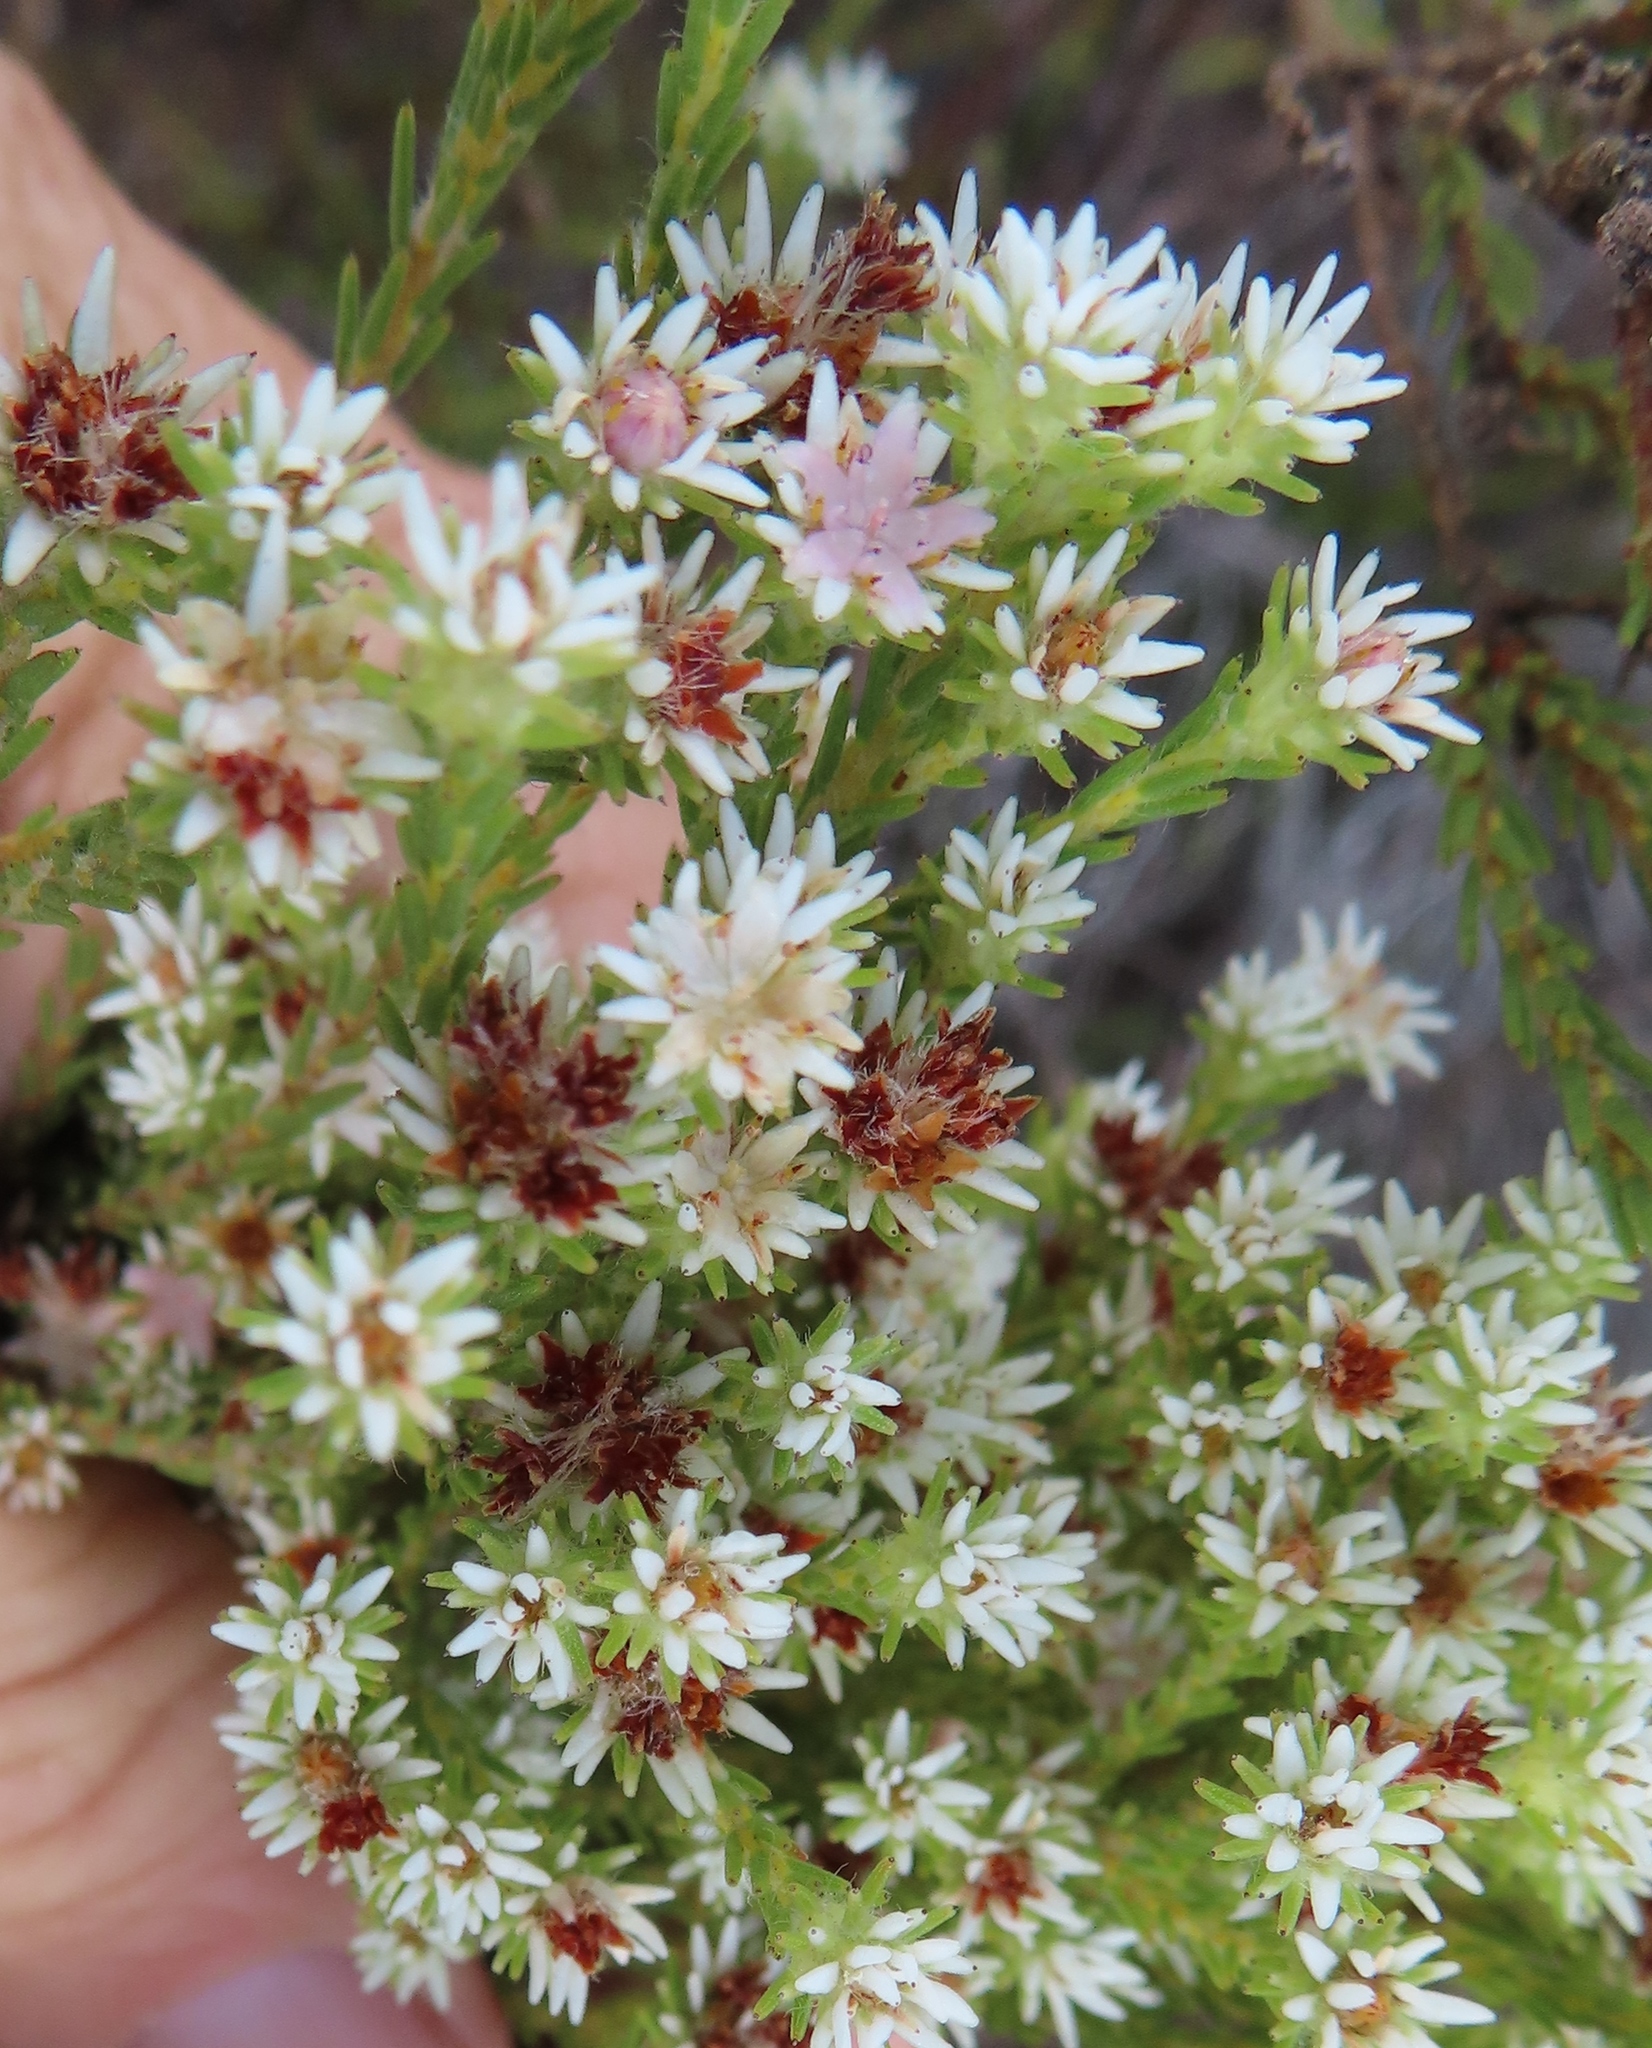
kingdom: Plantae
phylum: Tracheophyta
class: Magnoliopsida
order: Bruniales
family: Bruniaceae
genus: Staavia
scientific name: Staavia radiata
